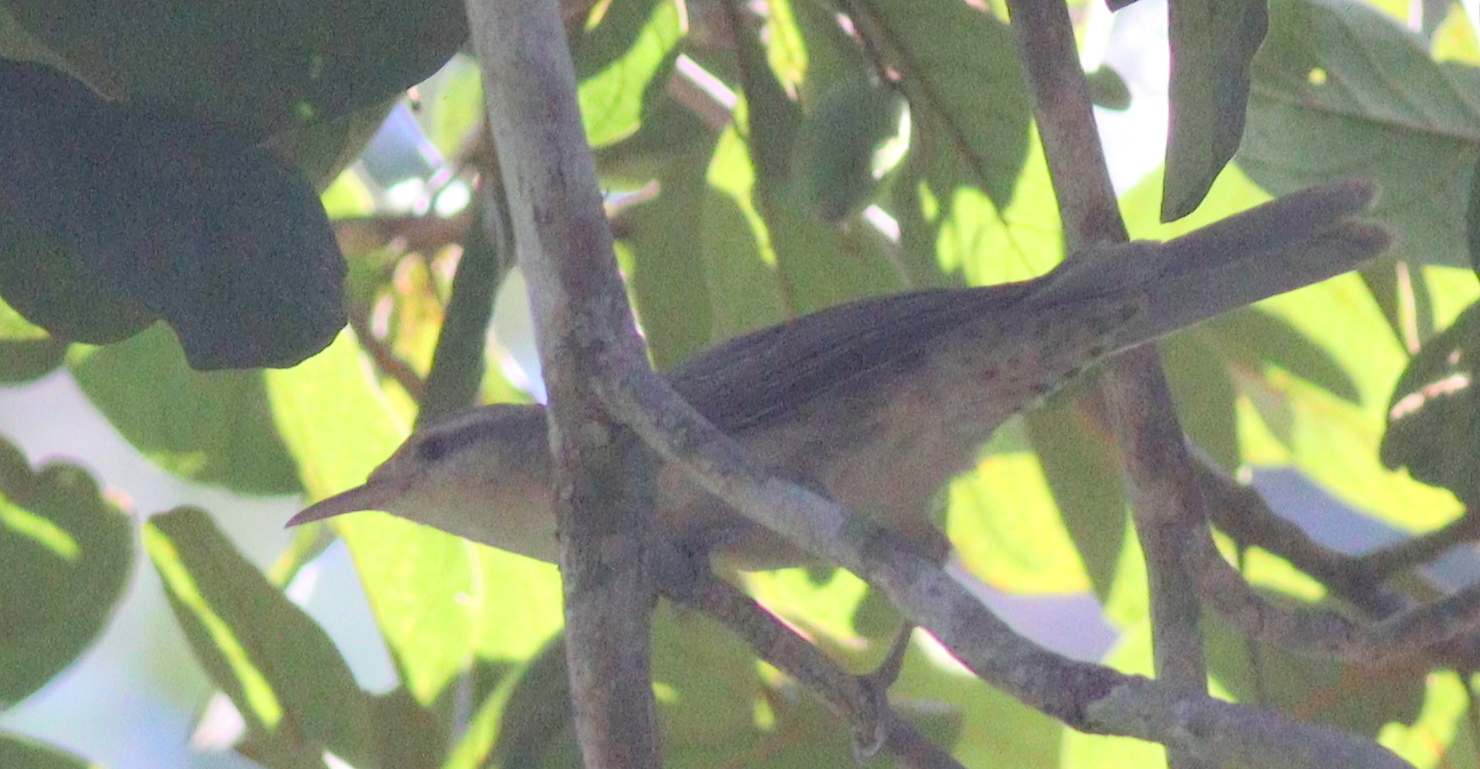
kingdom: Animalia
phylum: Chordata
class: Aves
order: Passeriformes
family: Troglodytidae
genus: Campylorhynchus
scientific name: Campylorhynchus turdinus
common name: Thrush-like wren
